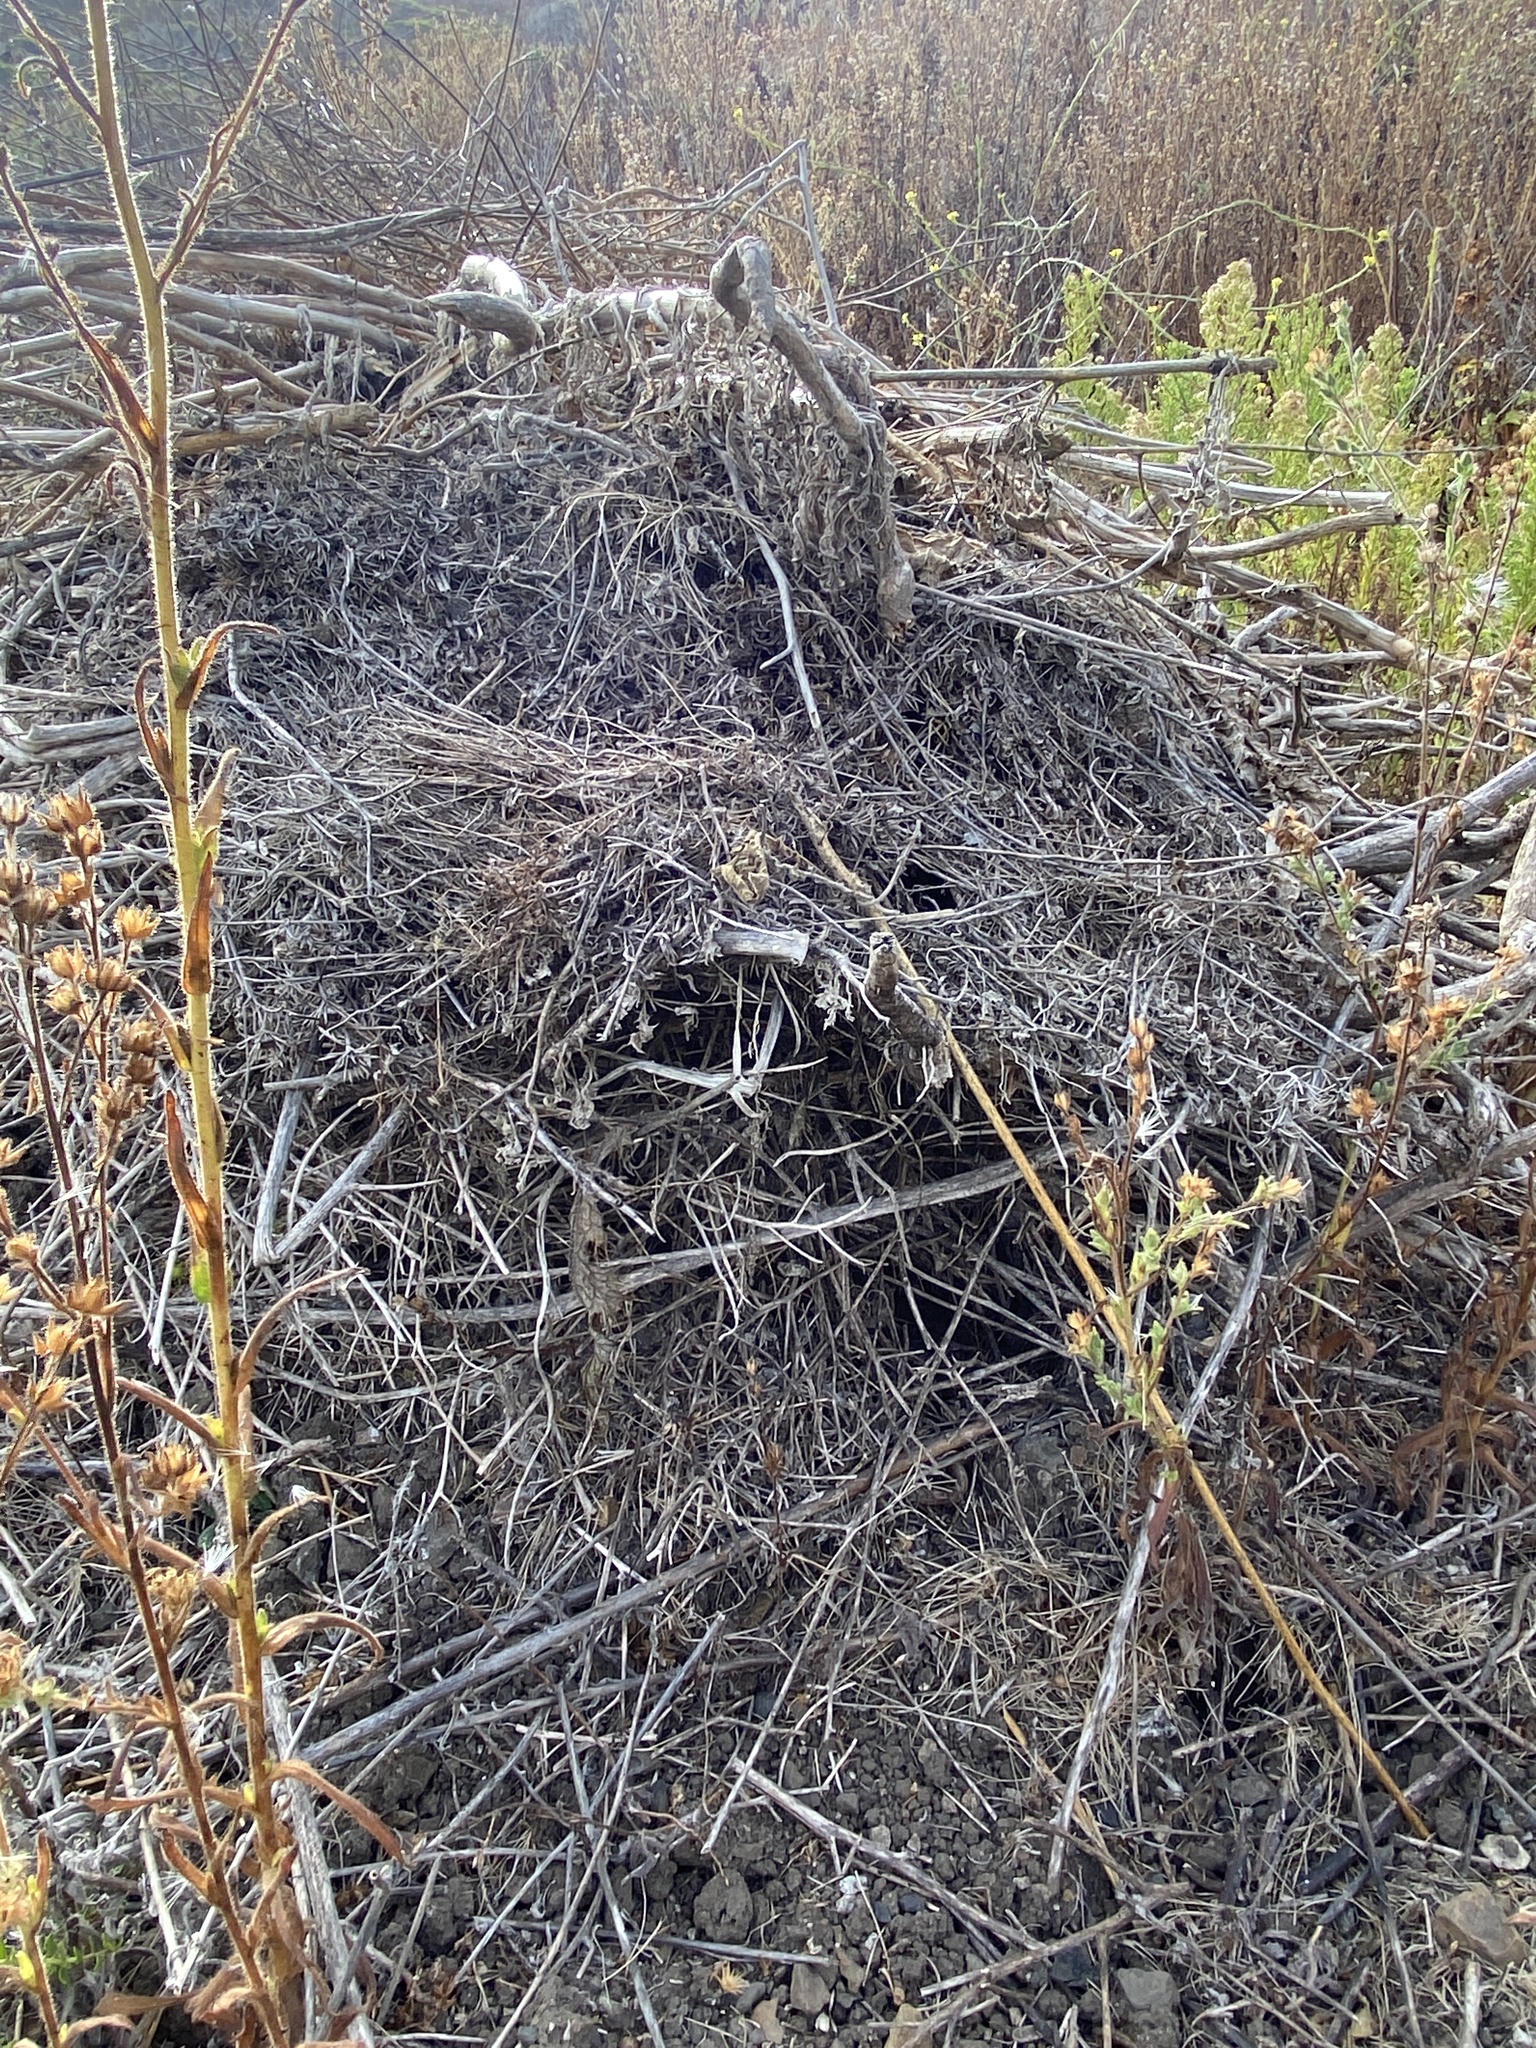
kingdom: Animalia
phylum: Chordata
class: Mammalia
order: Rodentia
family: Cricetidae
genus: Neotoma
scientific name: Neotoma fuscipes
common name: Dusky-footed woodrat
